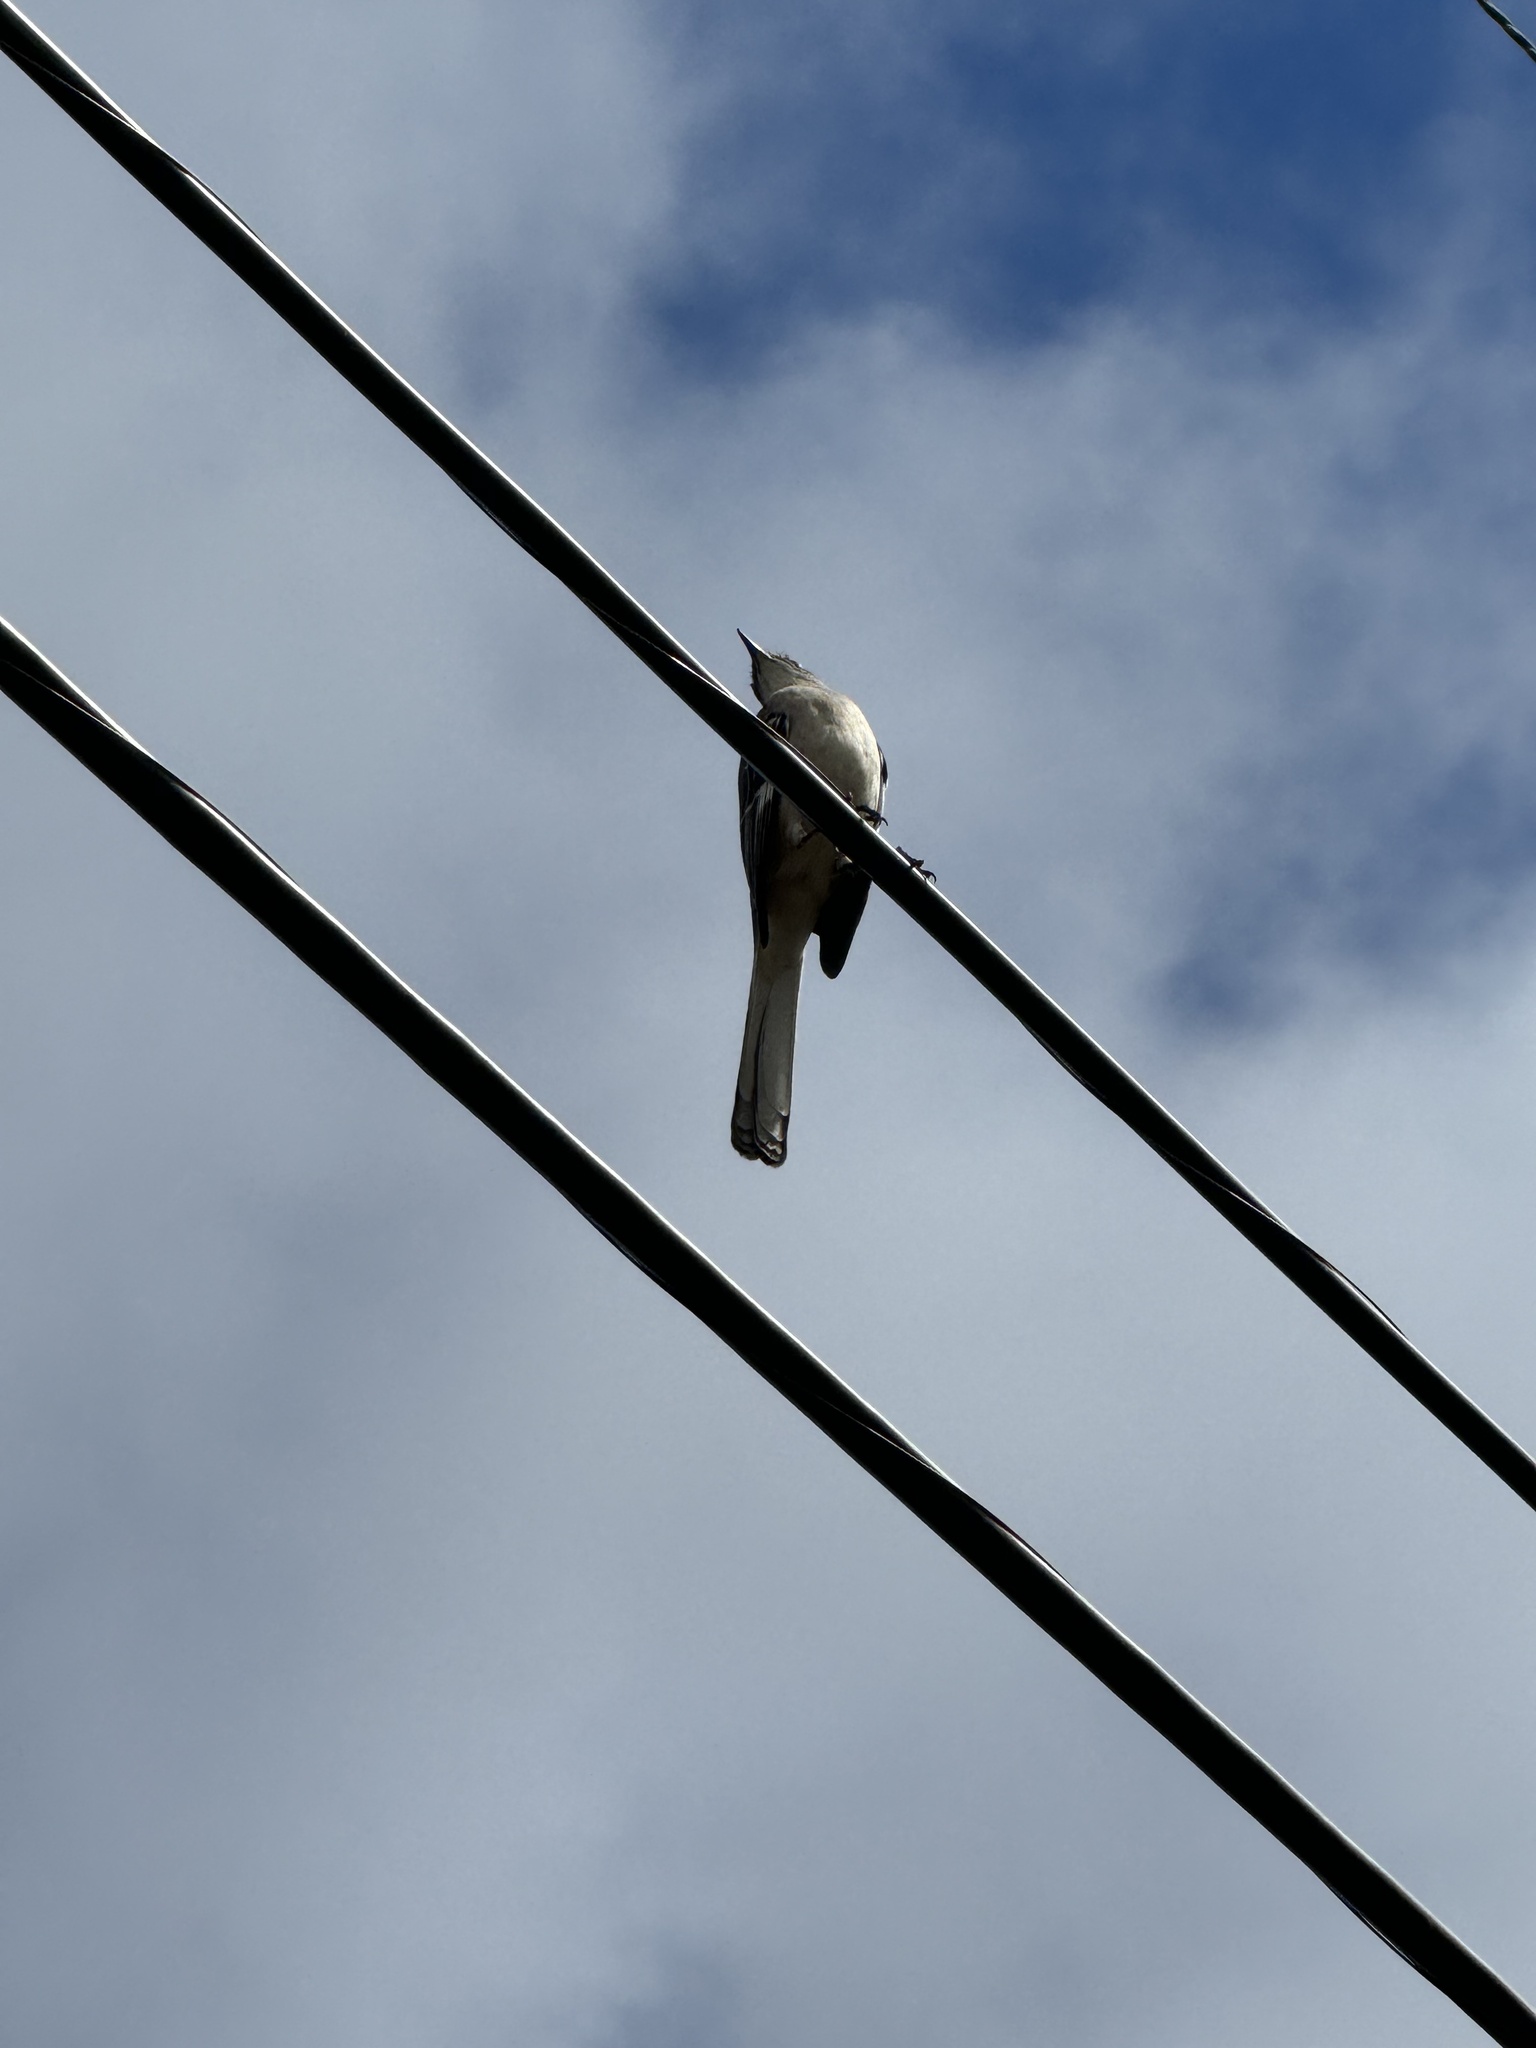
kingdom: Animalia
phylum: Chordata
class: Aves
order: Passeriformes
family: Mimidae
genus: Mimus
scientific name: Mimus polyglottos
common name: Northern mockingbird
